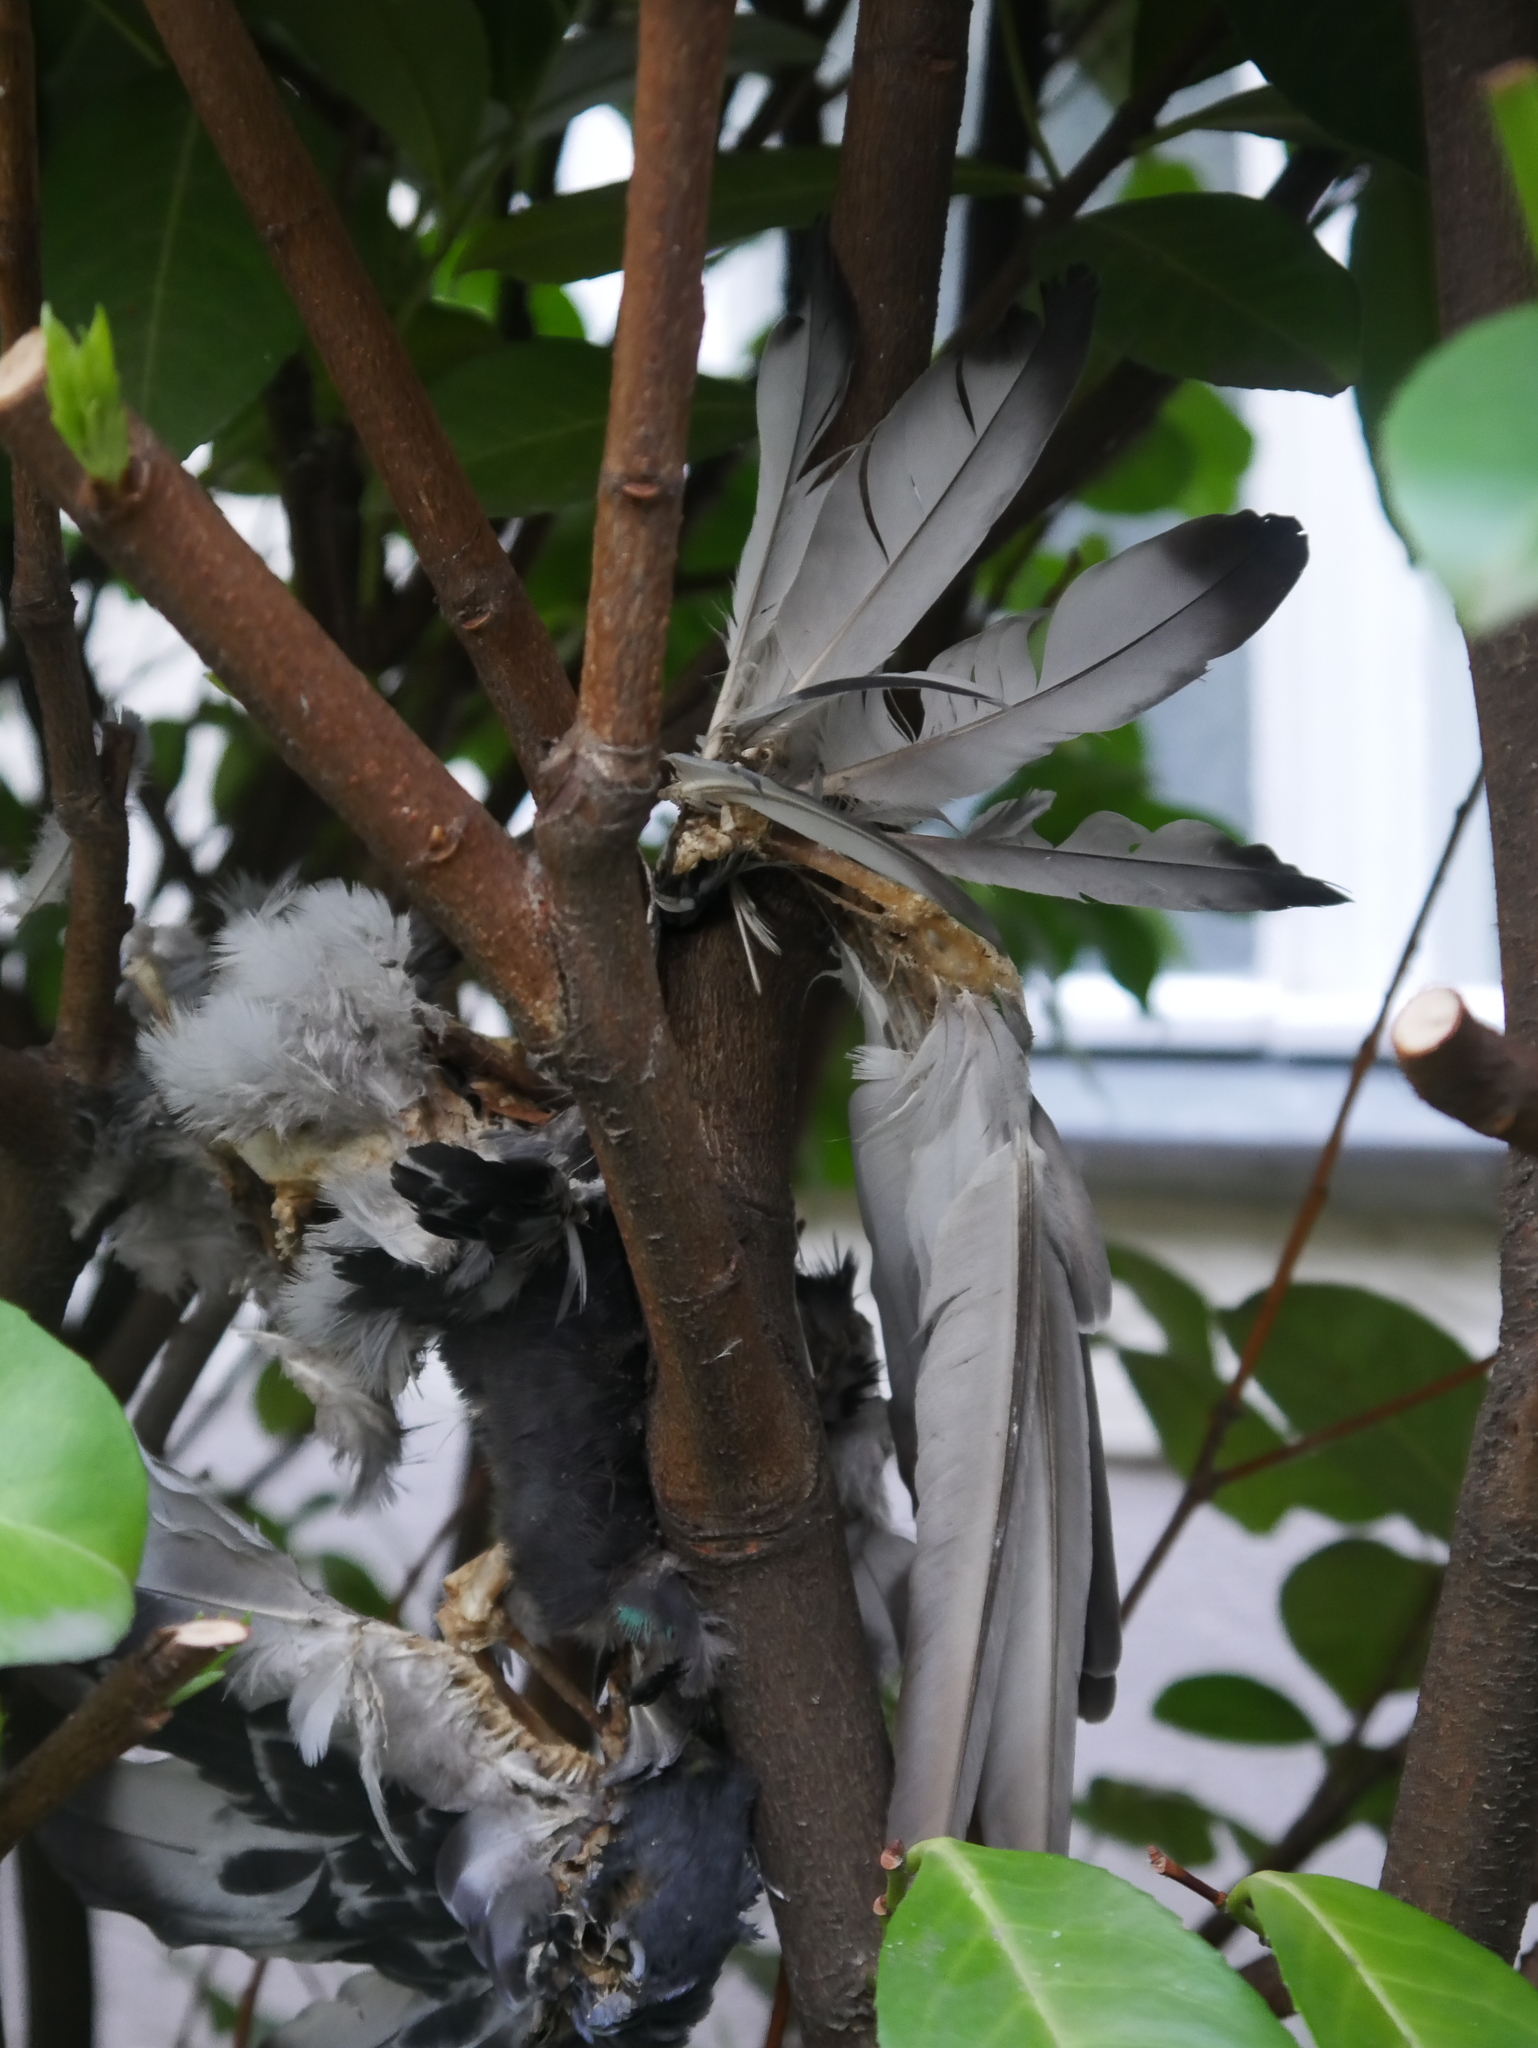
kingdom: Animalia
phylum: Chordata
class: Aves
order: Columbiformes
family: Columbidae
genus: Columba
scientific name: Columba livia
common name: Rock pigeon
